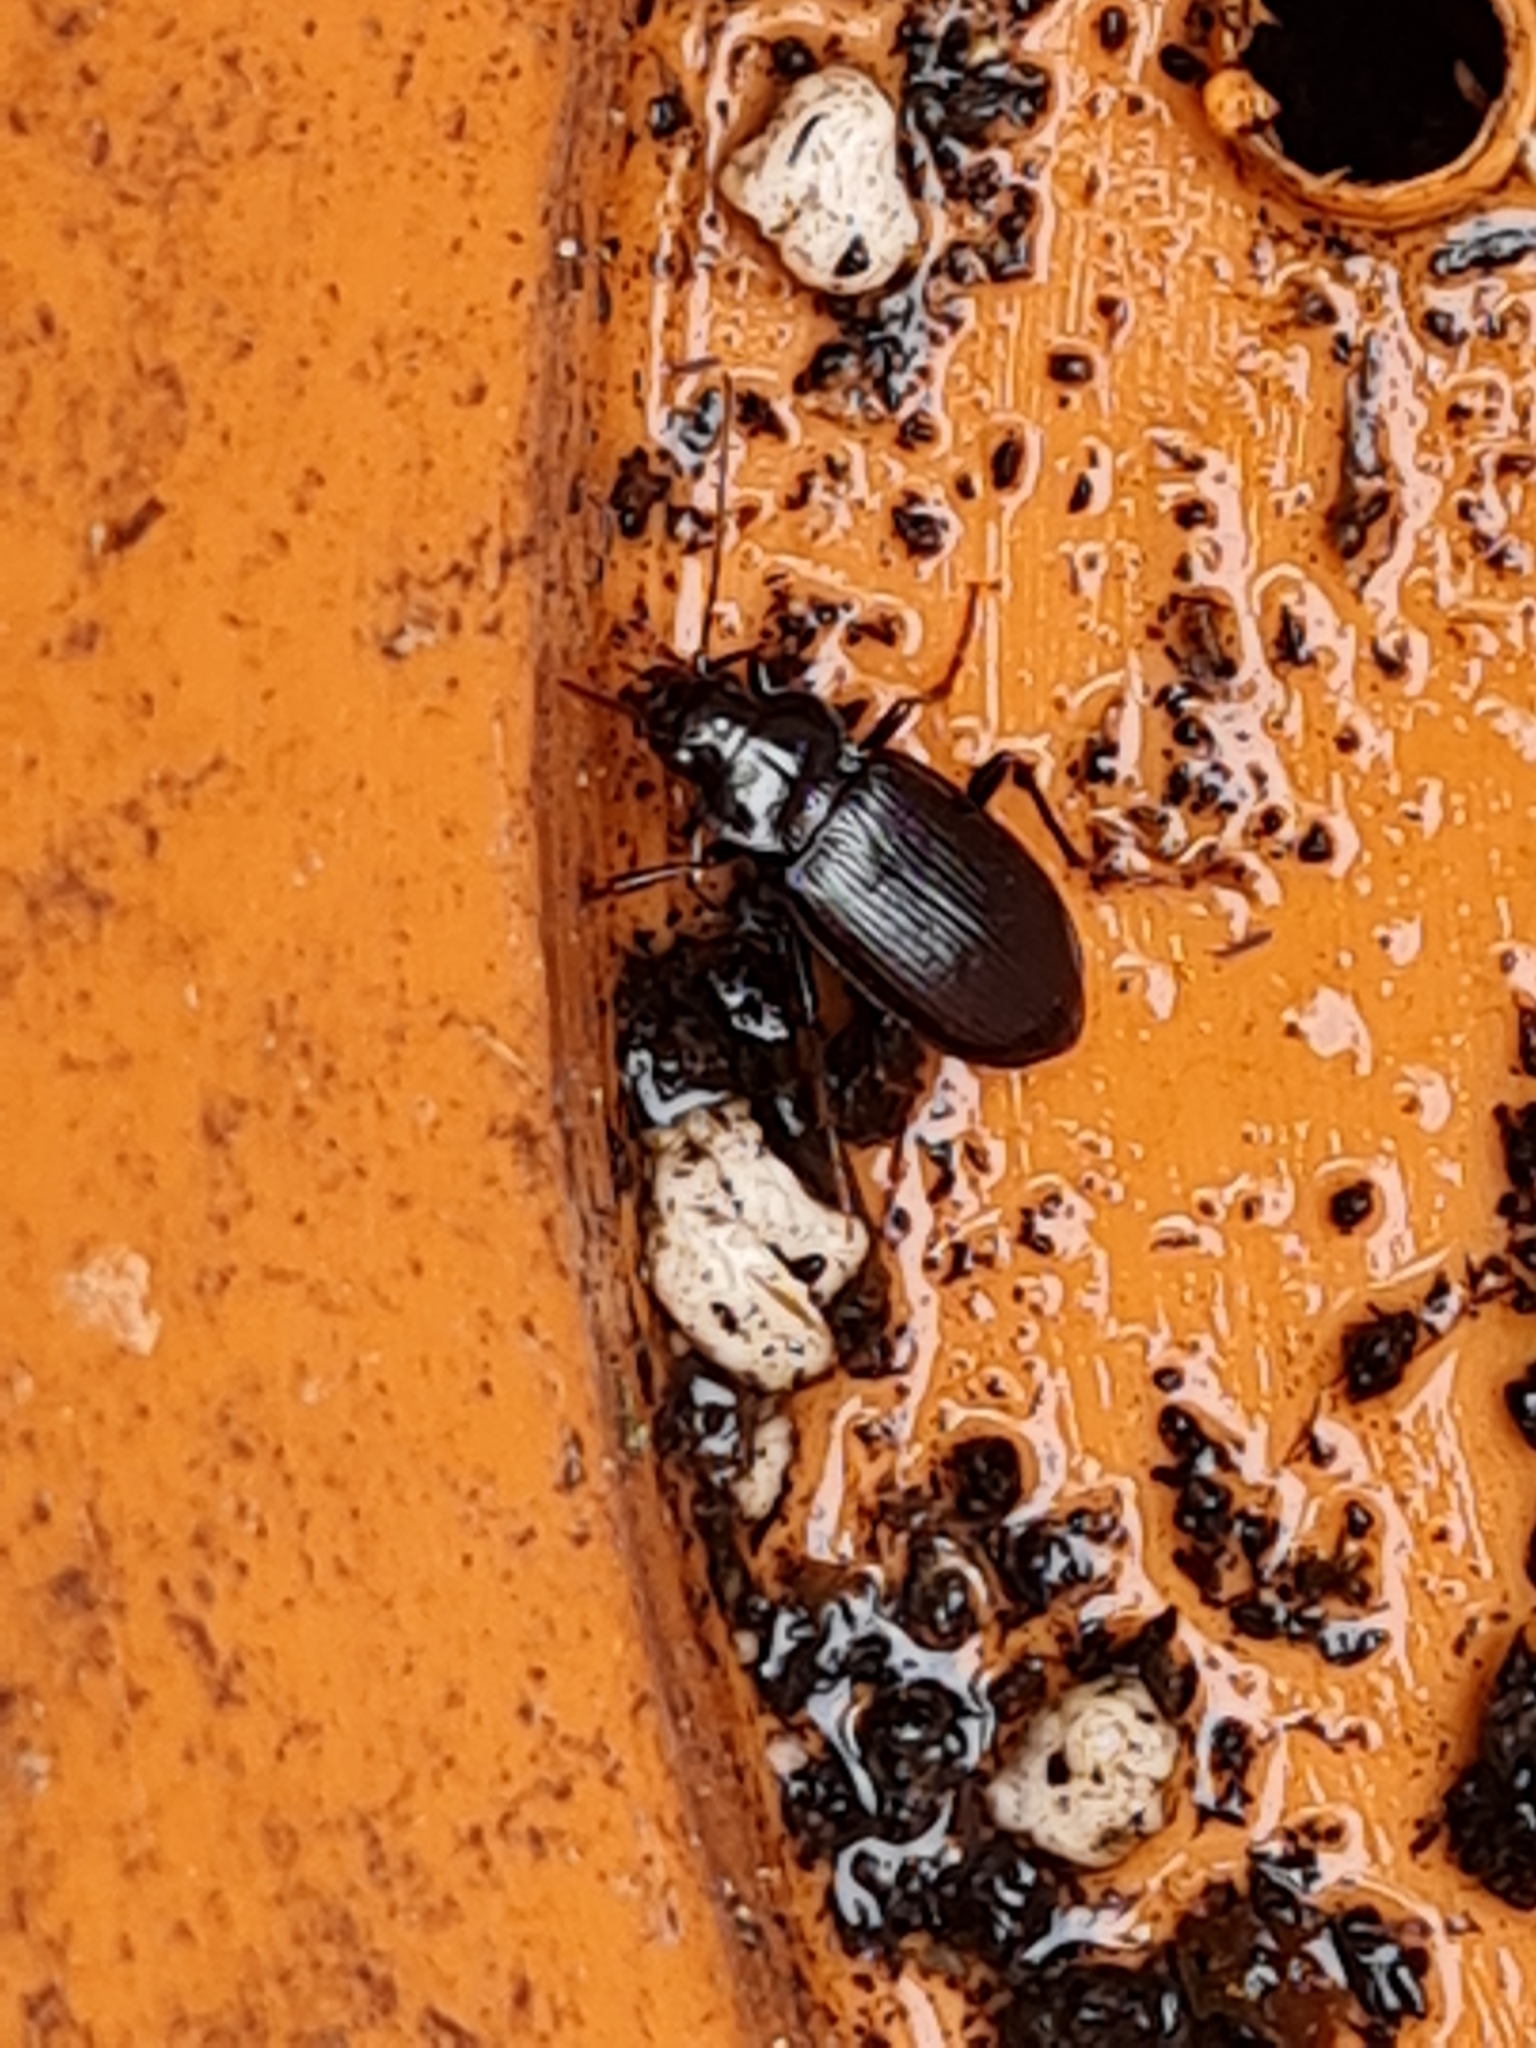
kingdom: Animalia
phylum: Arthropoda
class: Insecta
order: Coleoptera
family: Carabidae
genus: Nebria
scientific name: Nebria brevicollis
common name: Short-necked gazelle beetle
